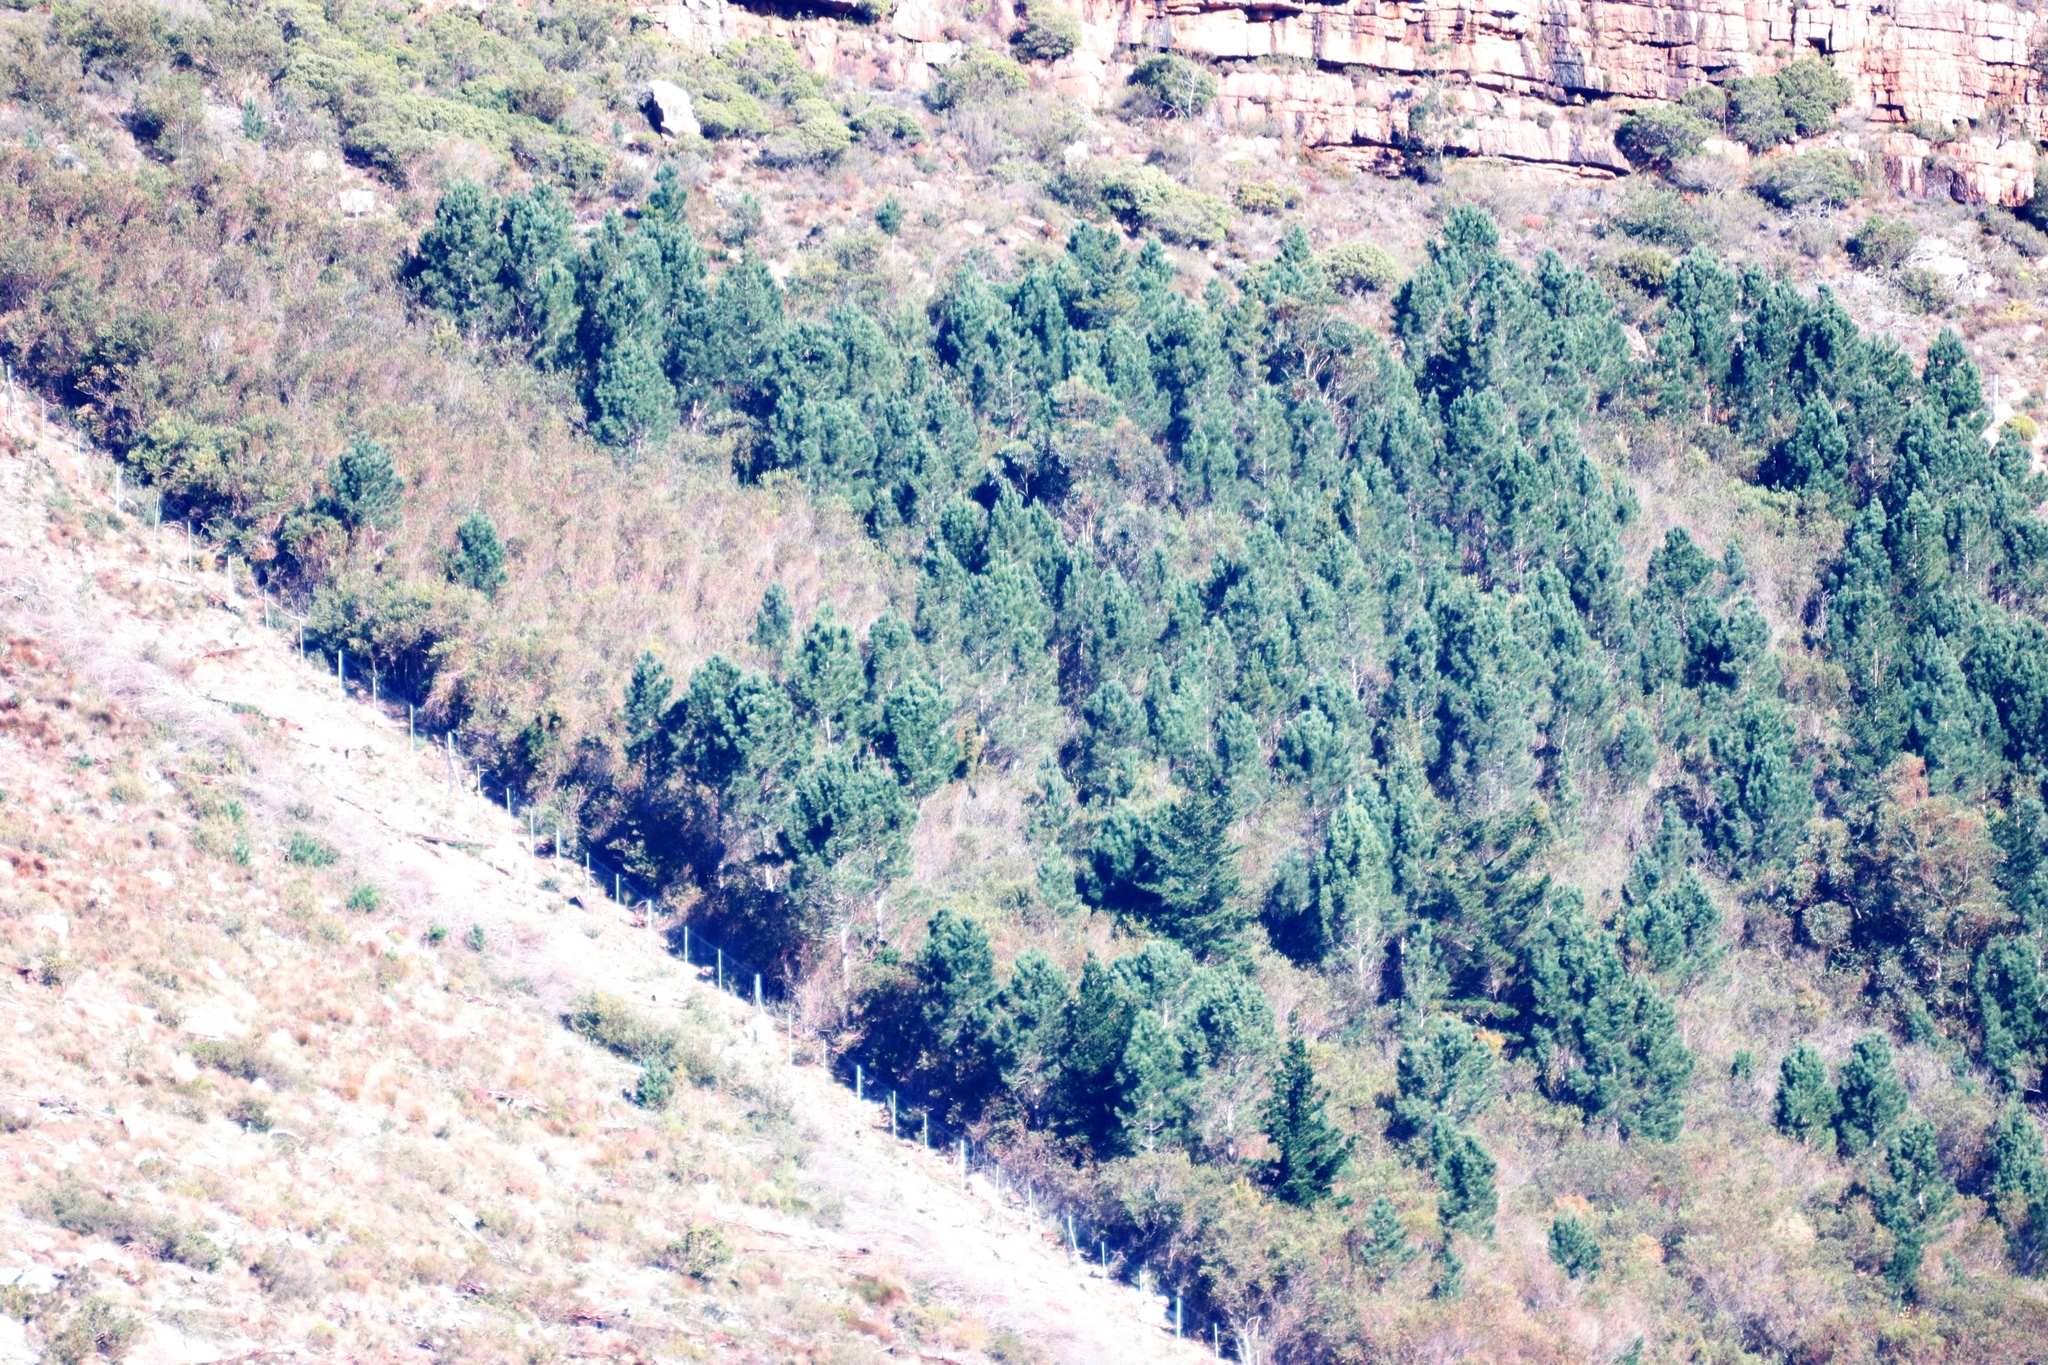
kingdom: Plantae
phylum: Tracheophyta
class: Magnoliopsida
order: Proteales
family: Proteaceae
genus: Hakea
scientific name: Hakea gibbosa
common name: Rock hakea
